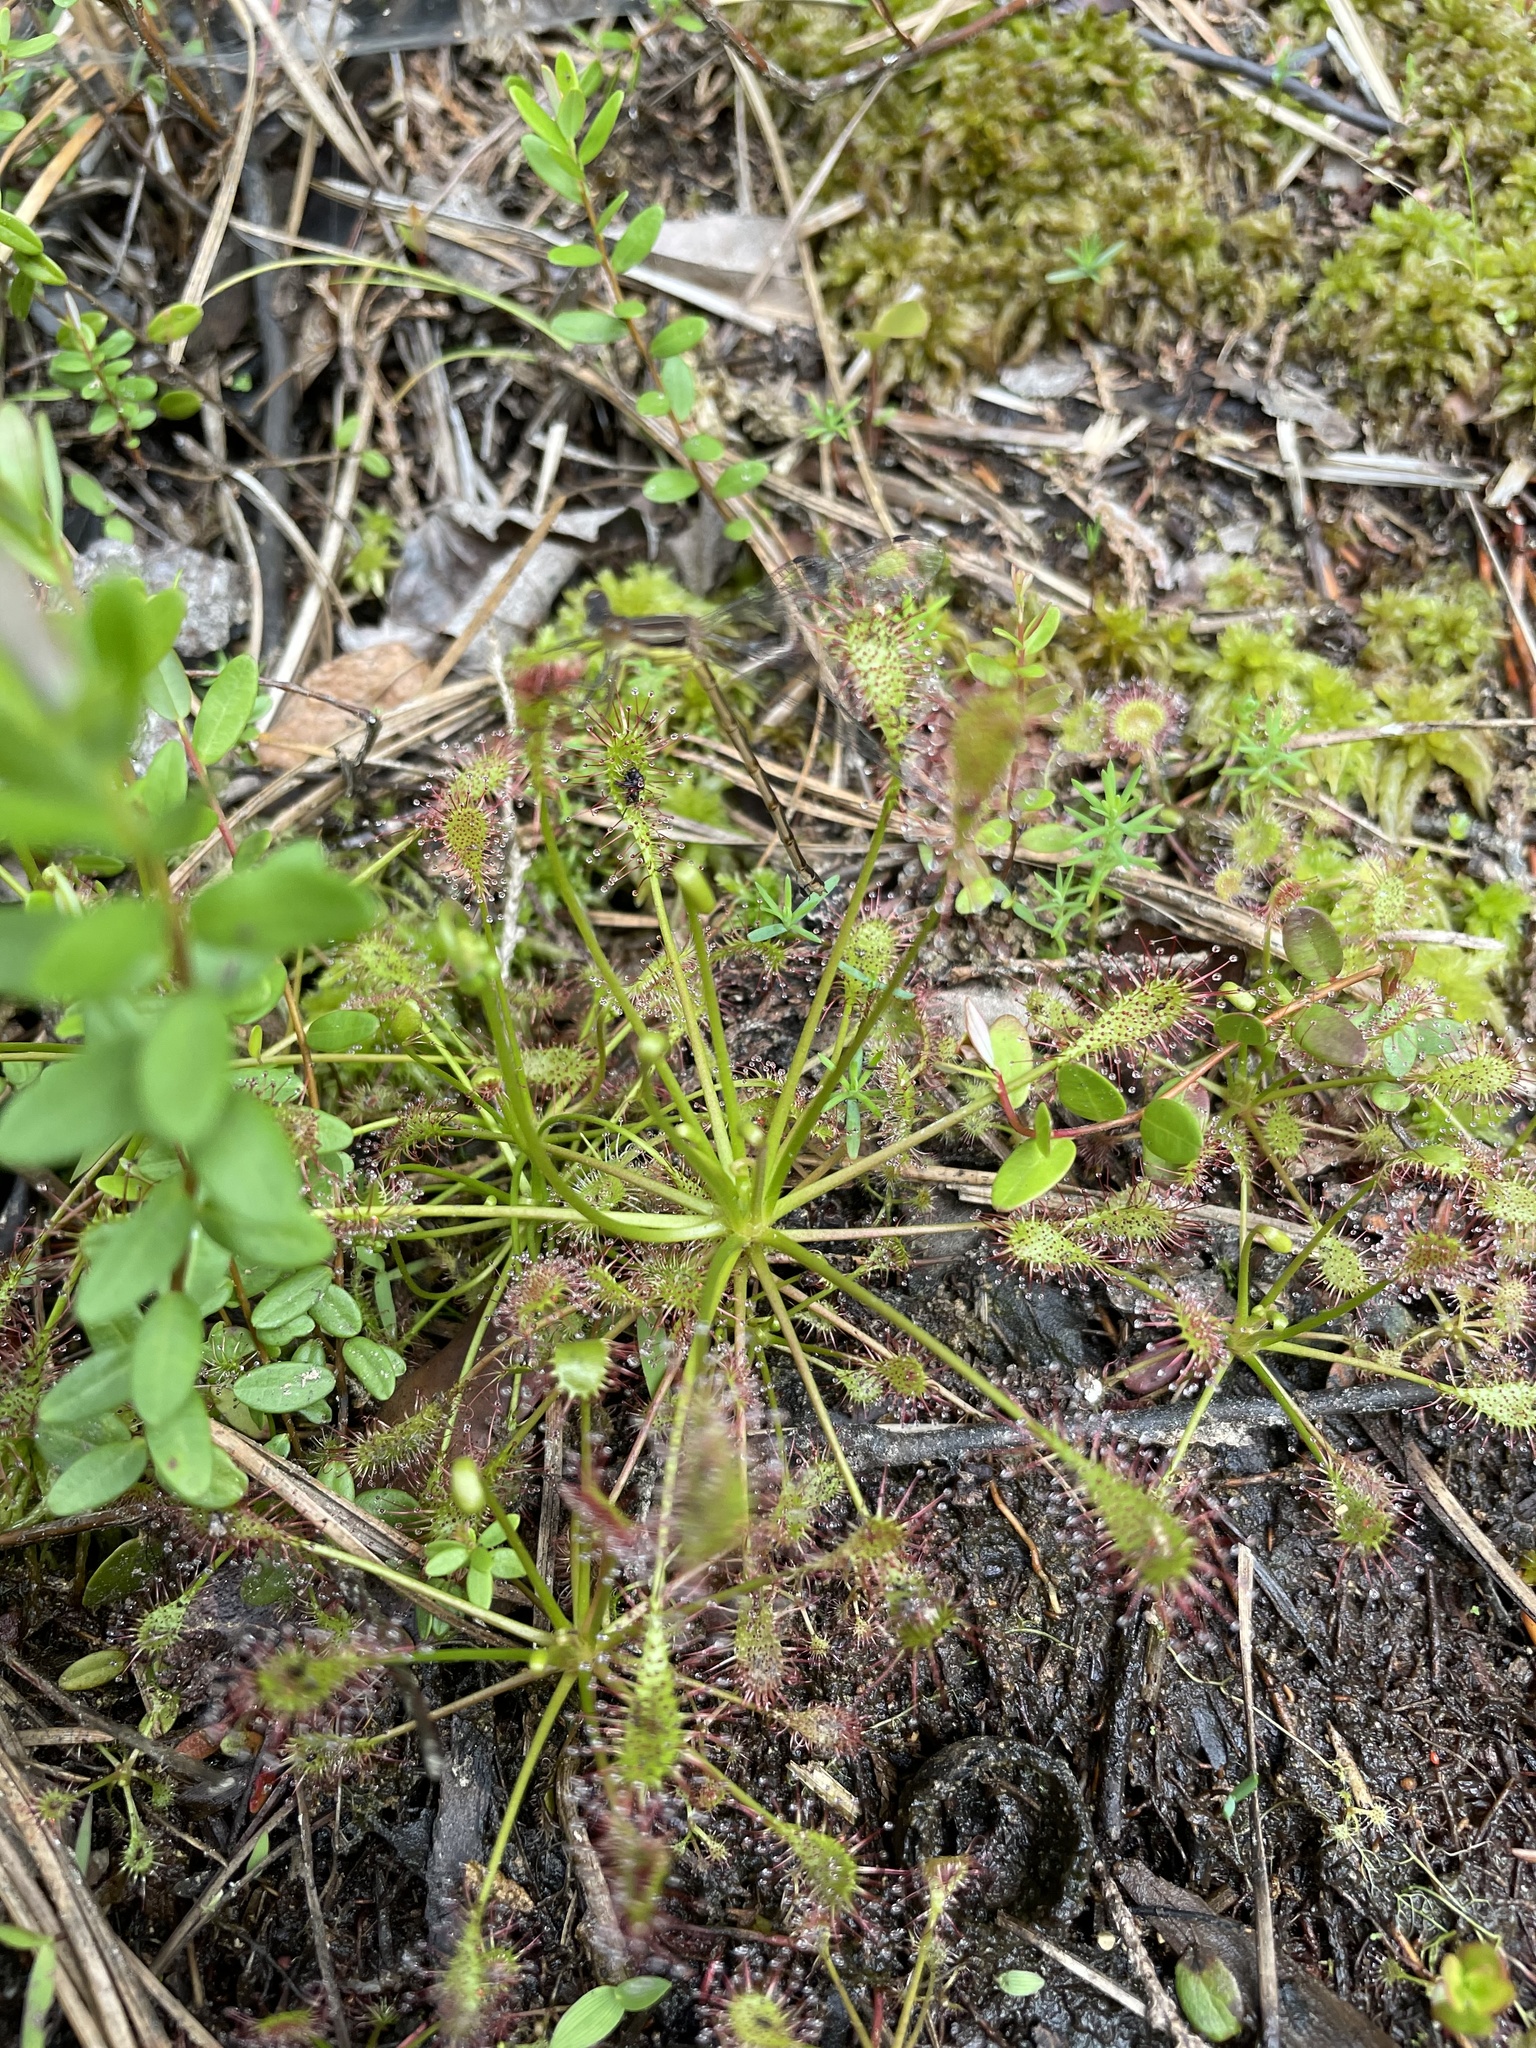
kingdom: Plantae
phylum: Tracheophyta
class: Magnoliopsida
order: Caryophyllales
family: Droseraceae
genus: Drosera
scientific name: Drosera rotundifolia
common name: Round-leaved sundew
